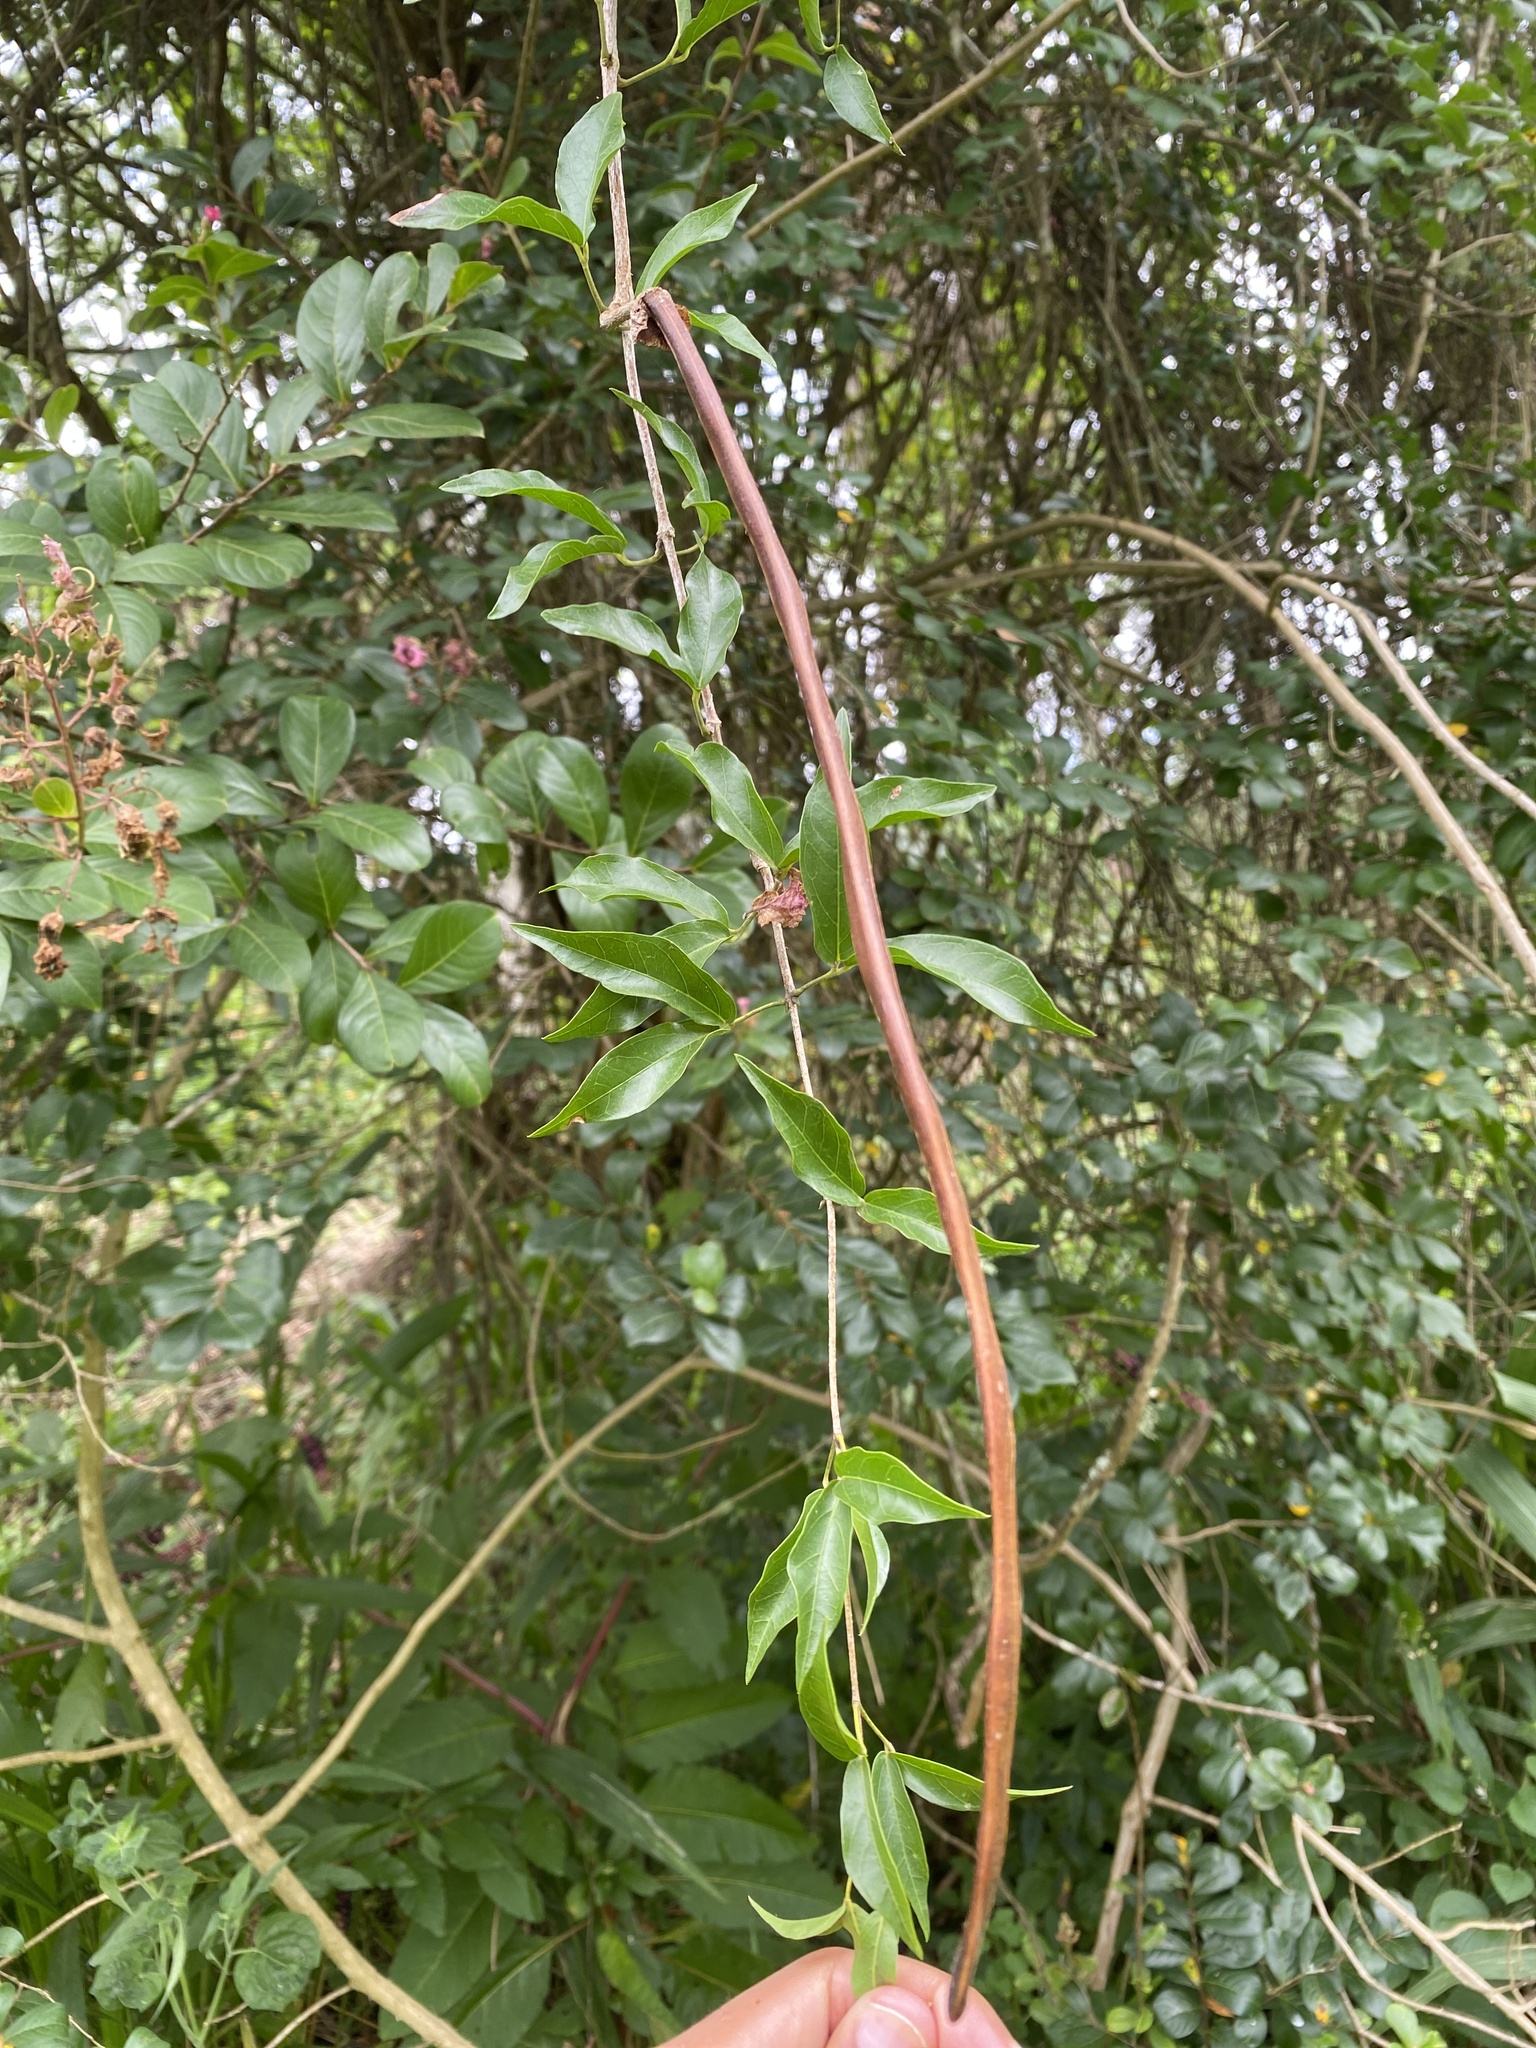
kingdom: Plantae
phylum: Tracheophyta
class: Magnoliopsida
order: Lamiales
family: Bignoniaceae
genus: Dolichandra
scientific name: Dolichandra unguis-cati
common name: Catclaw vine
